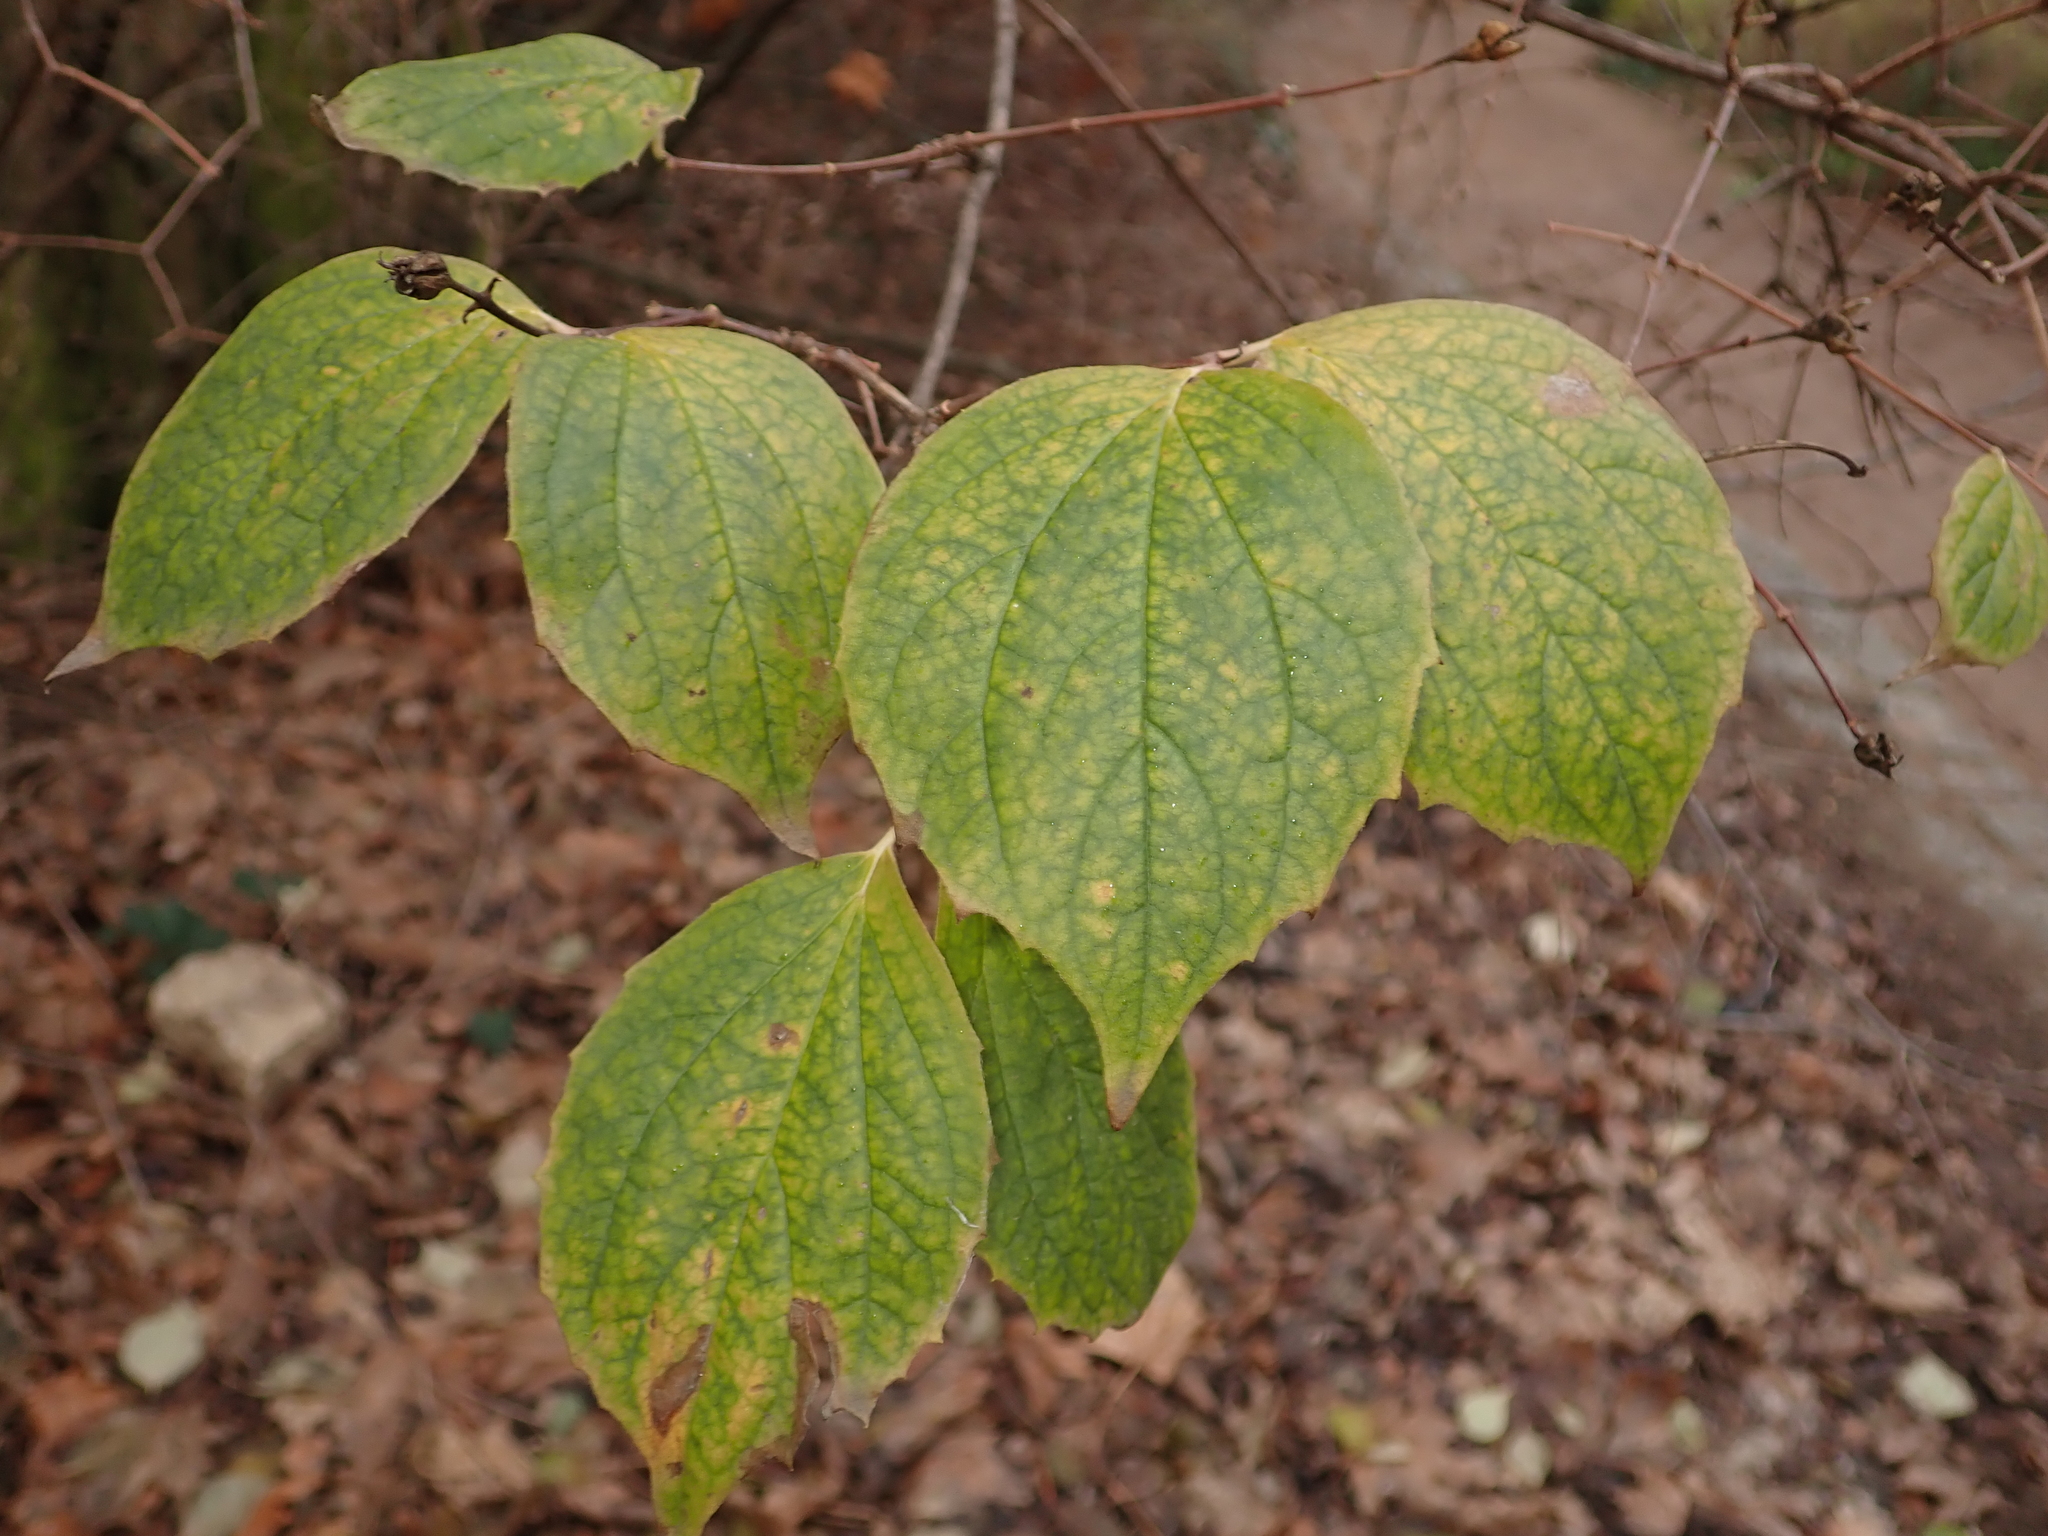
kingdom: Plantae
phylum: Tracheophyta
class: Magnoliopsida
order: Cornales
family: Hydrangeaceae
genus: Philadelphus
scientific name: Philadelphus coronarius
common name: Mock orange
